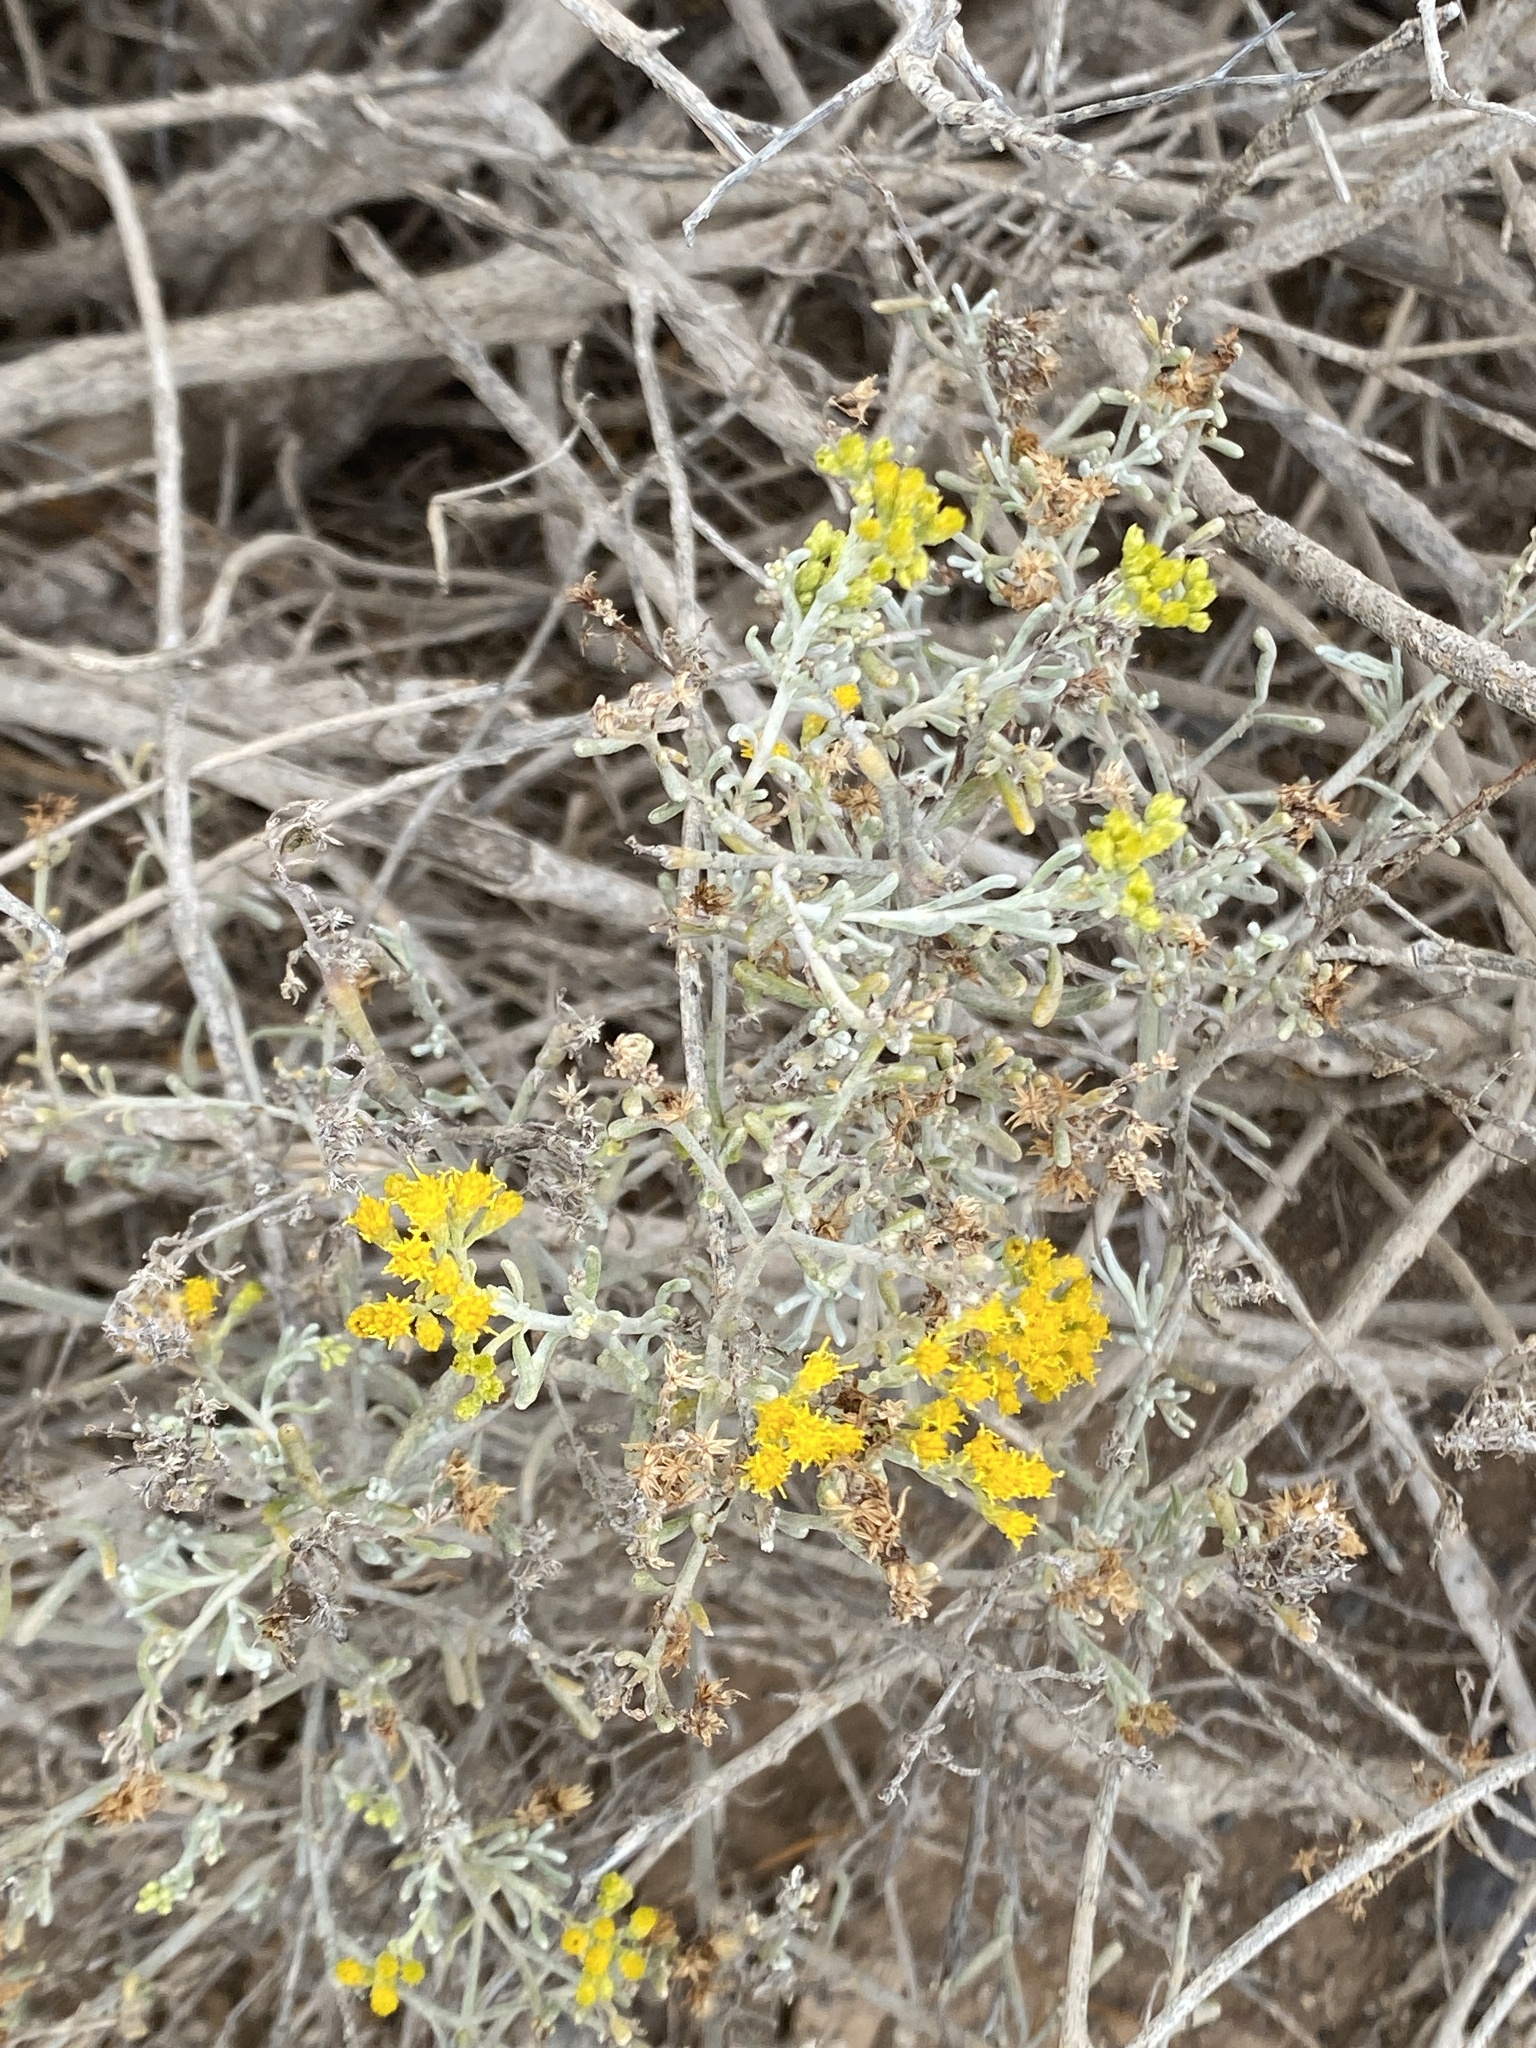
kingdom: Plantae
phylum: Tracheophyta
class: Magnoliopsida
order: Asterales
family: Asteraceae
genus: Schizogyne
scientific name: Schizogyne sericea
